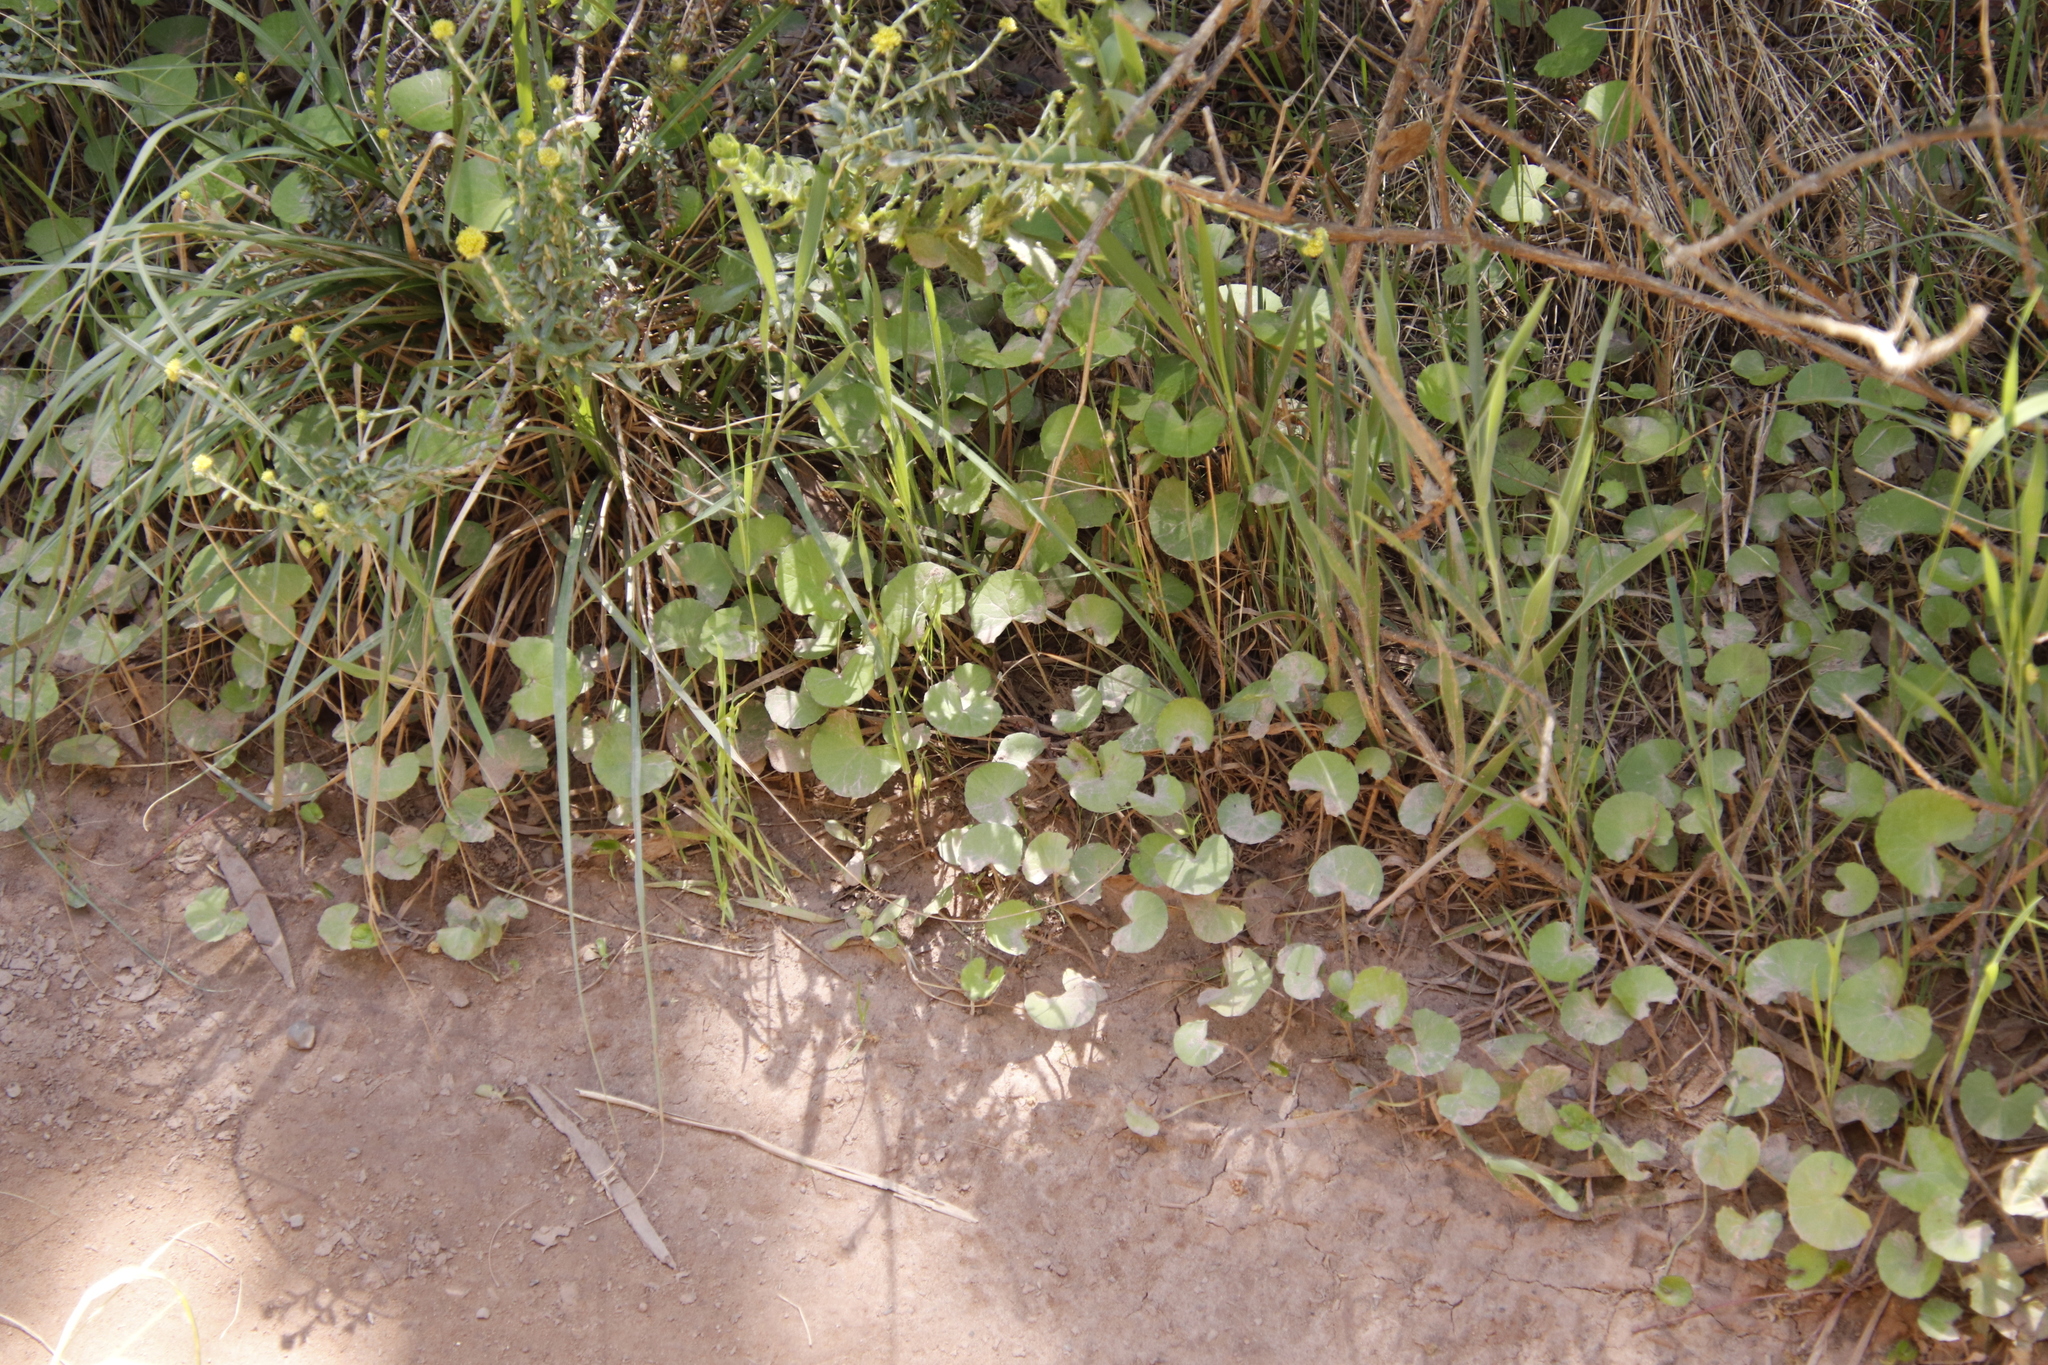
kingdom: Plantae
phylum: Tracheophyta
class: Magnoliopsida
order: Apiales
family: Apiaceae
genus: Centella
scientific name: Centella asiatica
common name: Spadeleaf
